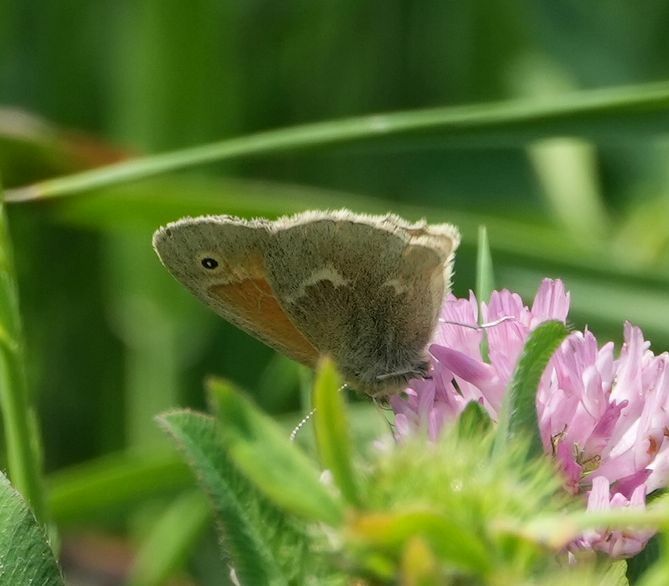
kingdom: Animalia
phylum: Arthropoda
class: Insecta
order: Lepidoptera
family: Nymphalidae
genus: Coenonympha
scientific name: Coenonympha california
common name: Common ringlet
